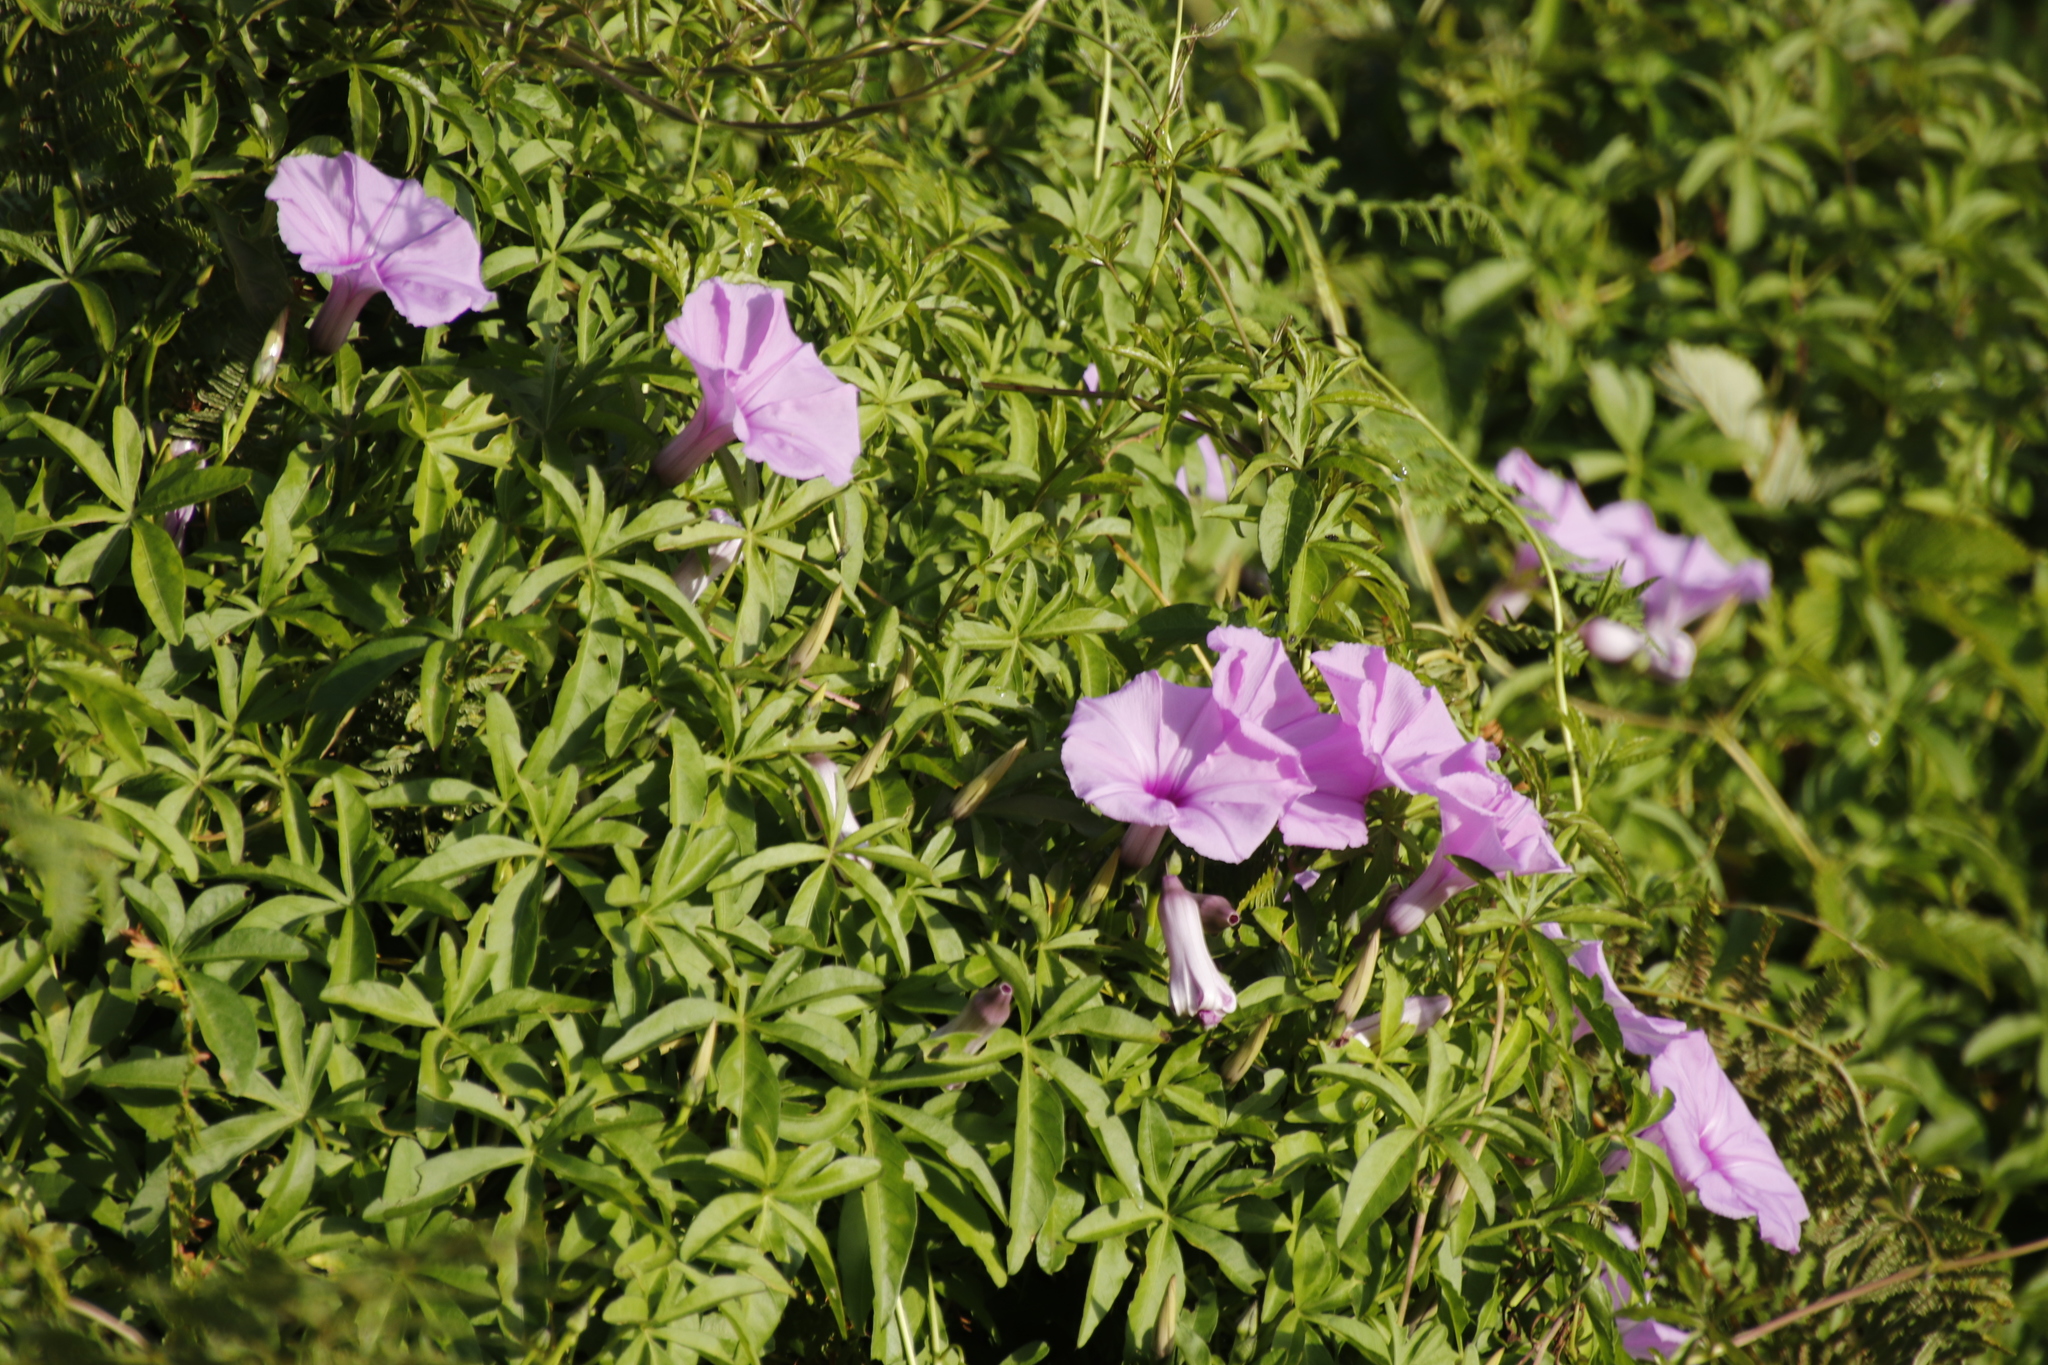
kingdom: Plantae
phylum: Tracheophyta
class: Magnoliopsida
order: Solanales
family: Convolvulaceae
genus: Ipomoea
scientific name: Ipomoea cairica
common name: Mile a minute vine
